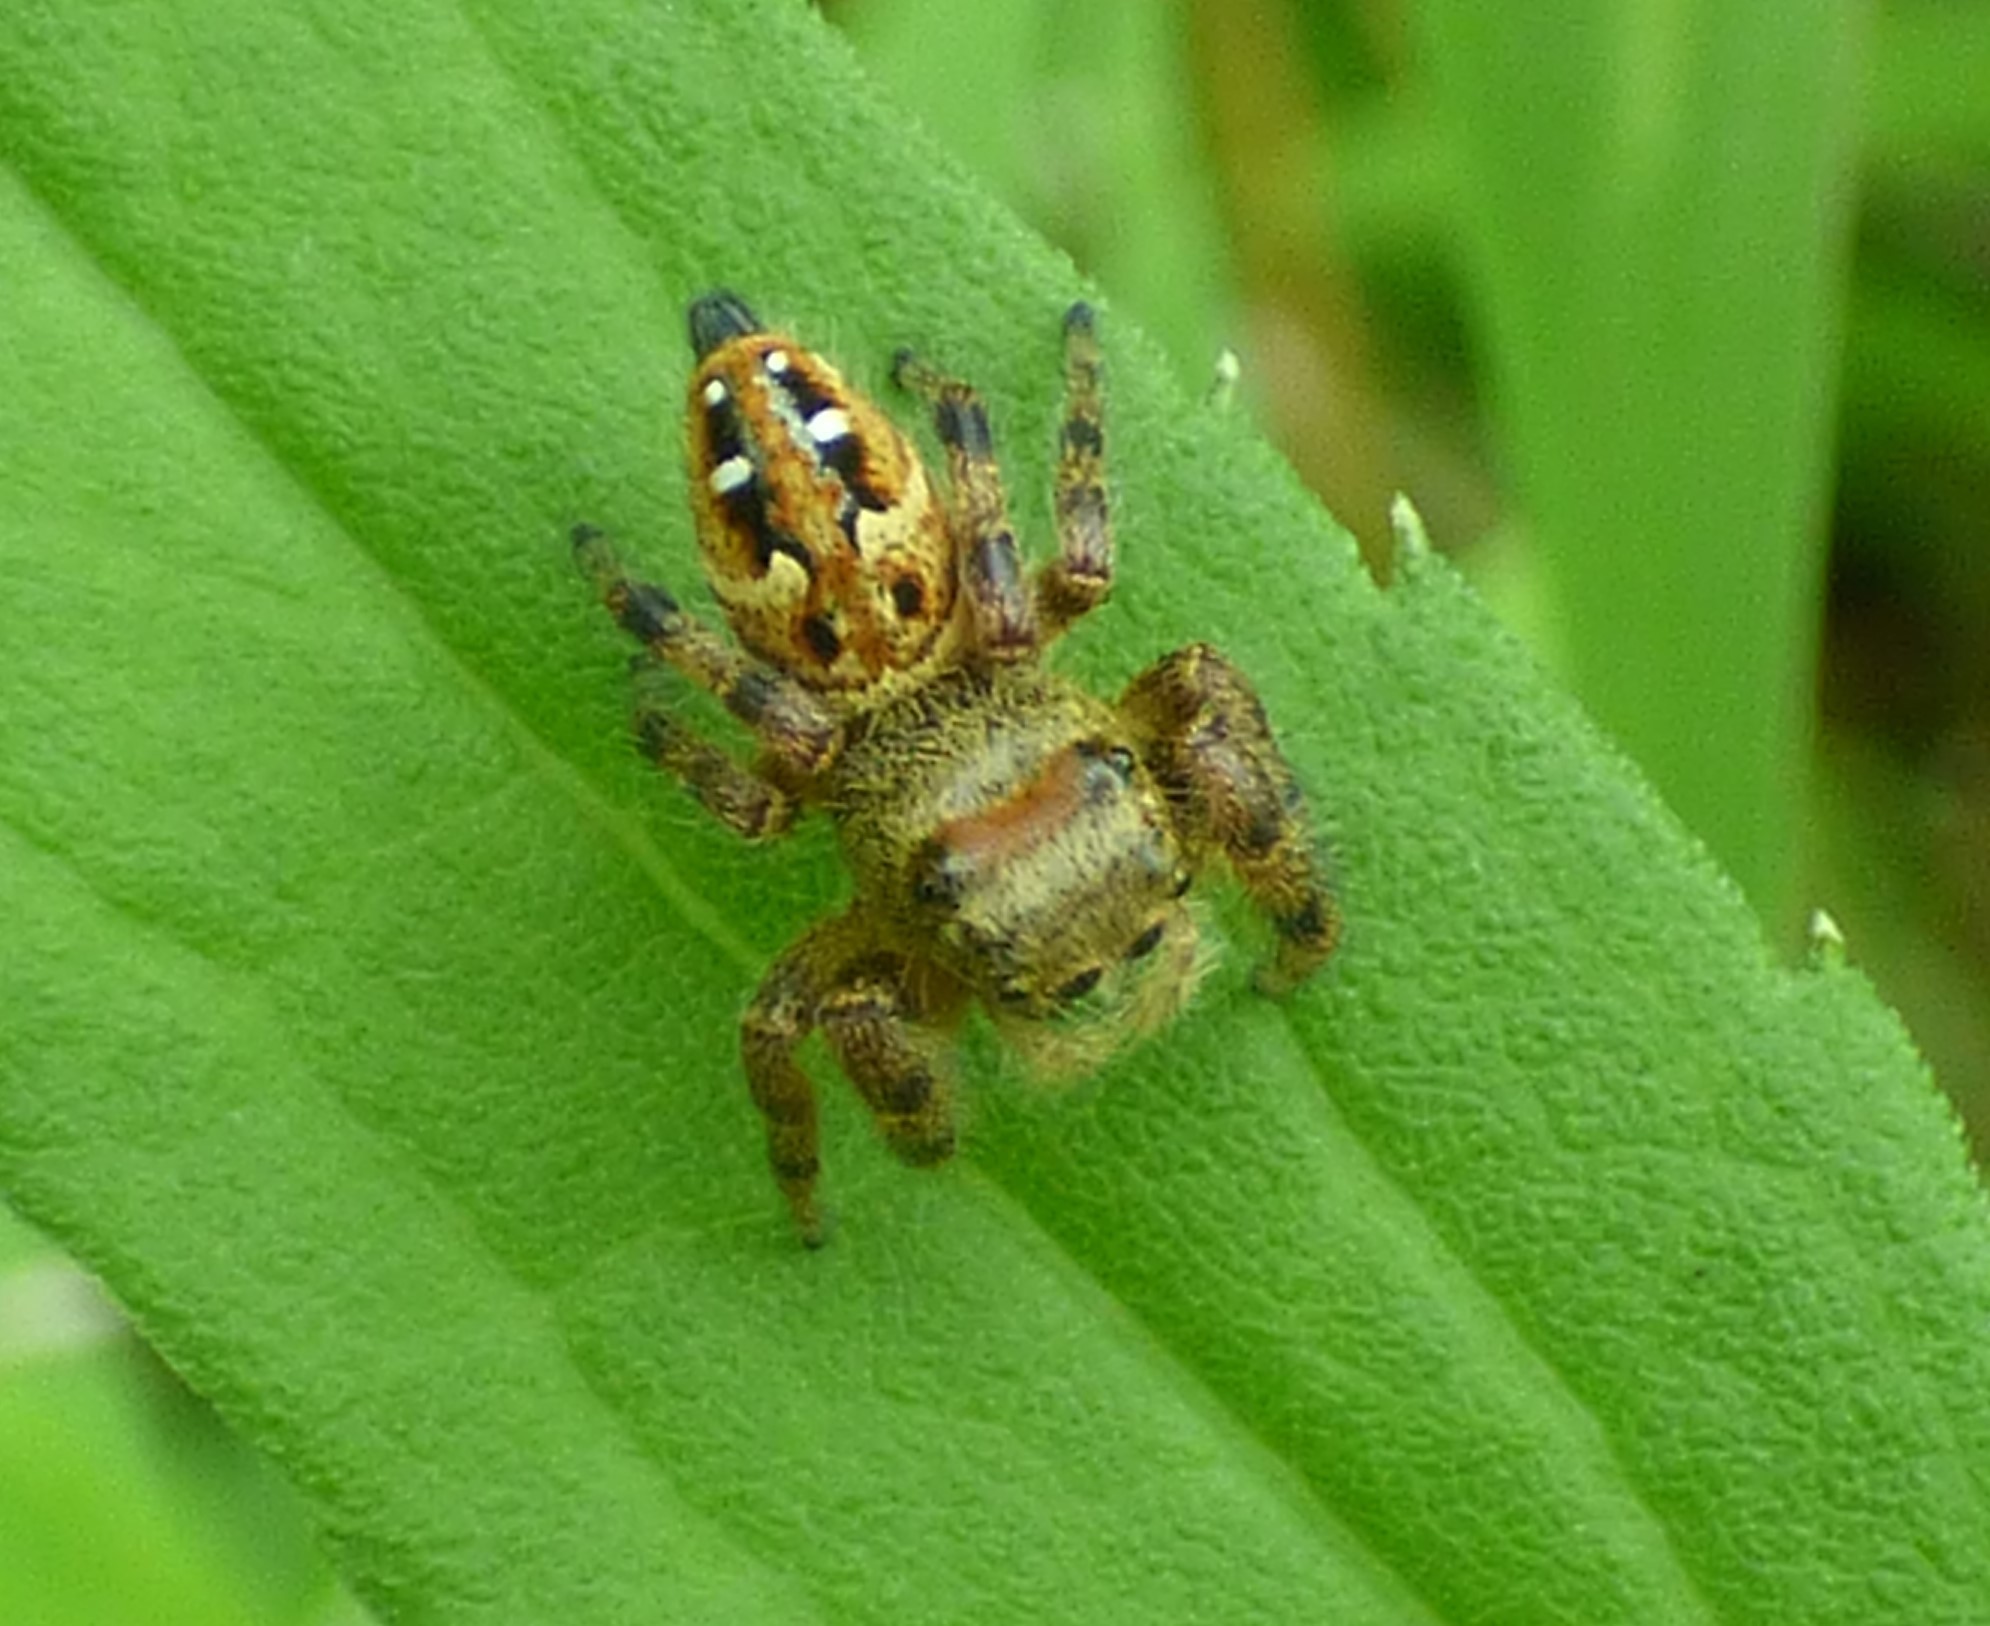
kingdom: Animalia
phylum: Arthropoda
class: Arachnida
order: Araneae
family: Salticidae
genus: Phidippus
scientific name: Phidippus clarus
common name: Brilliant jumping spider
